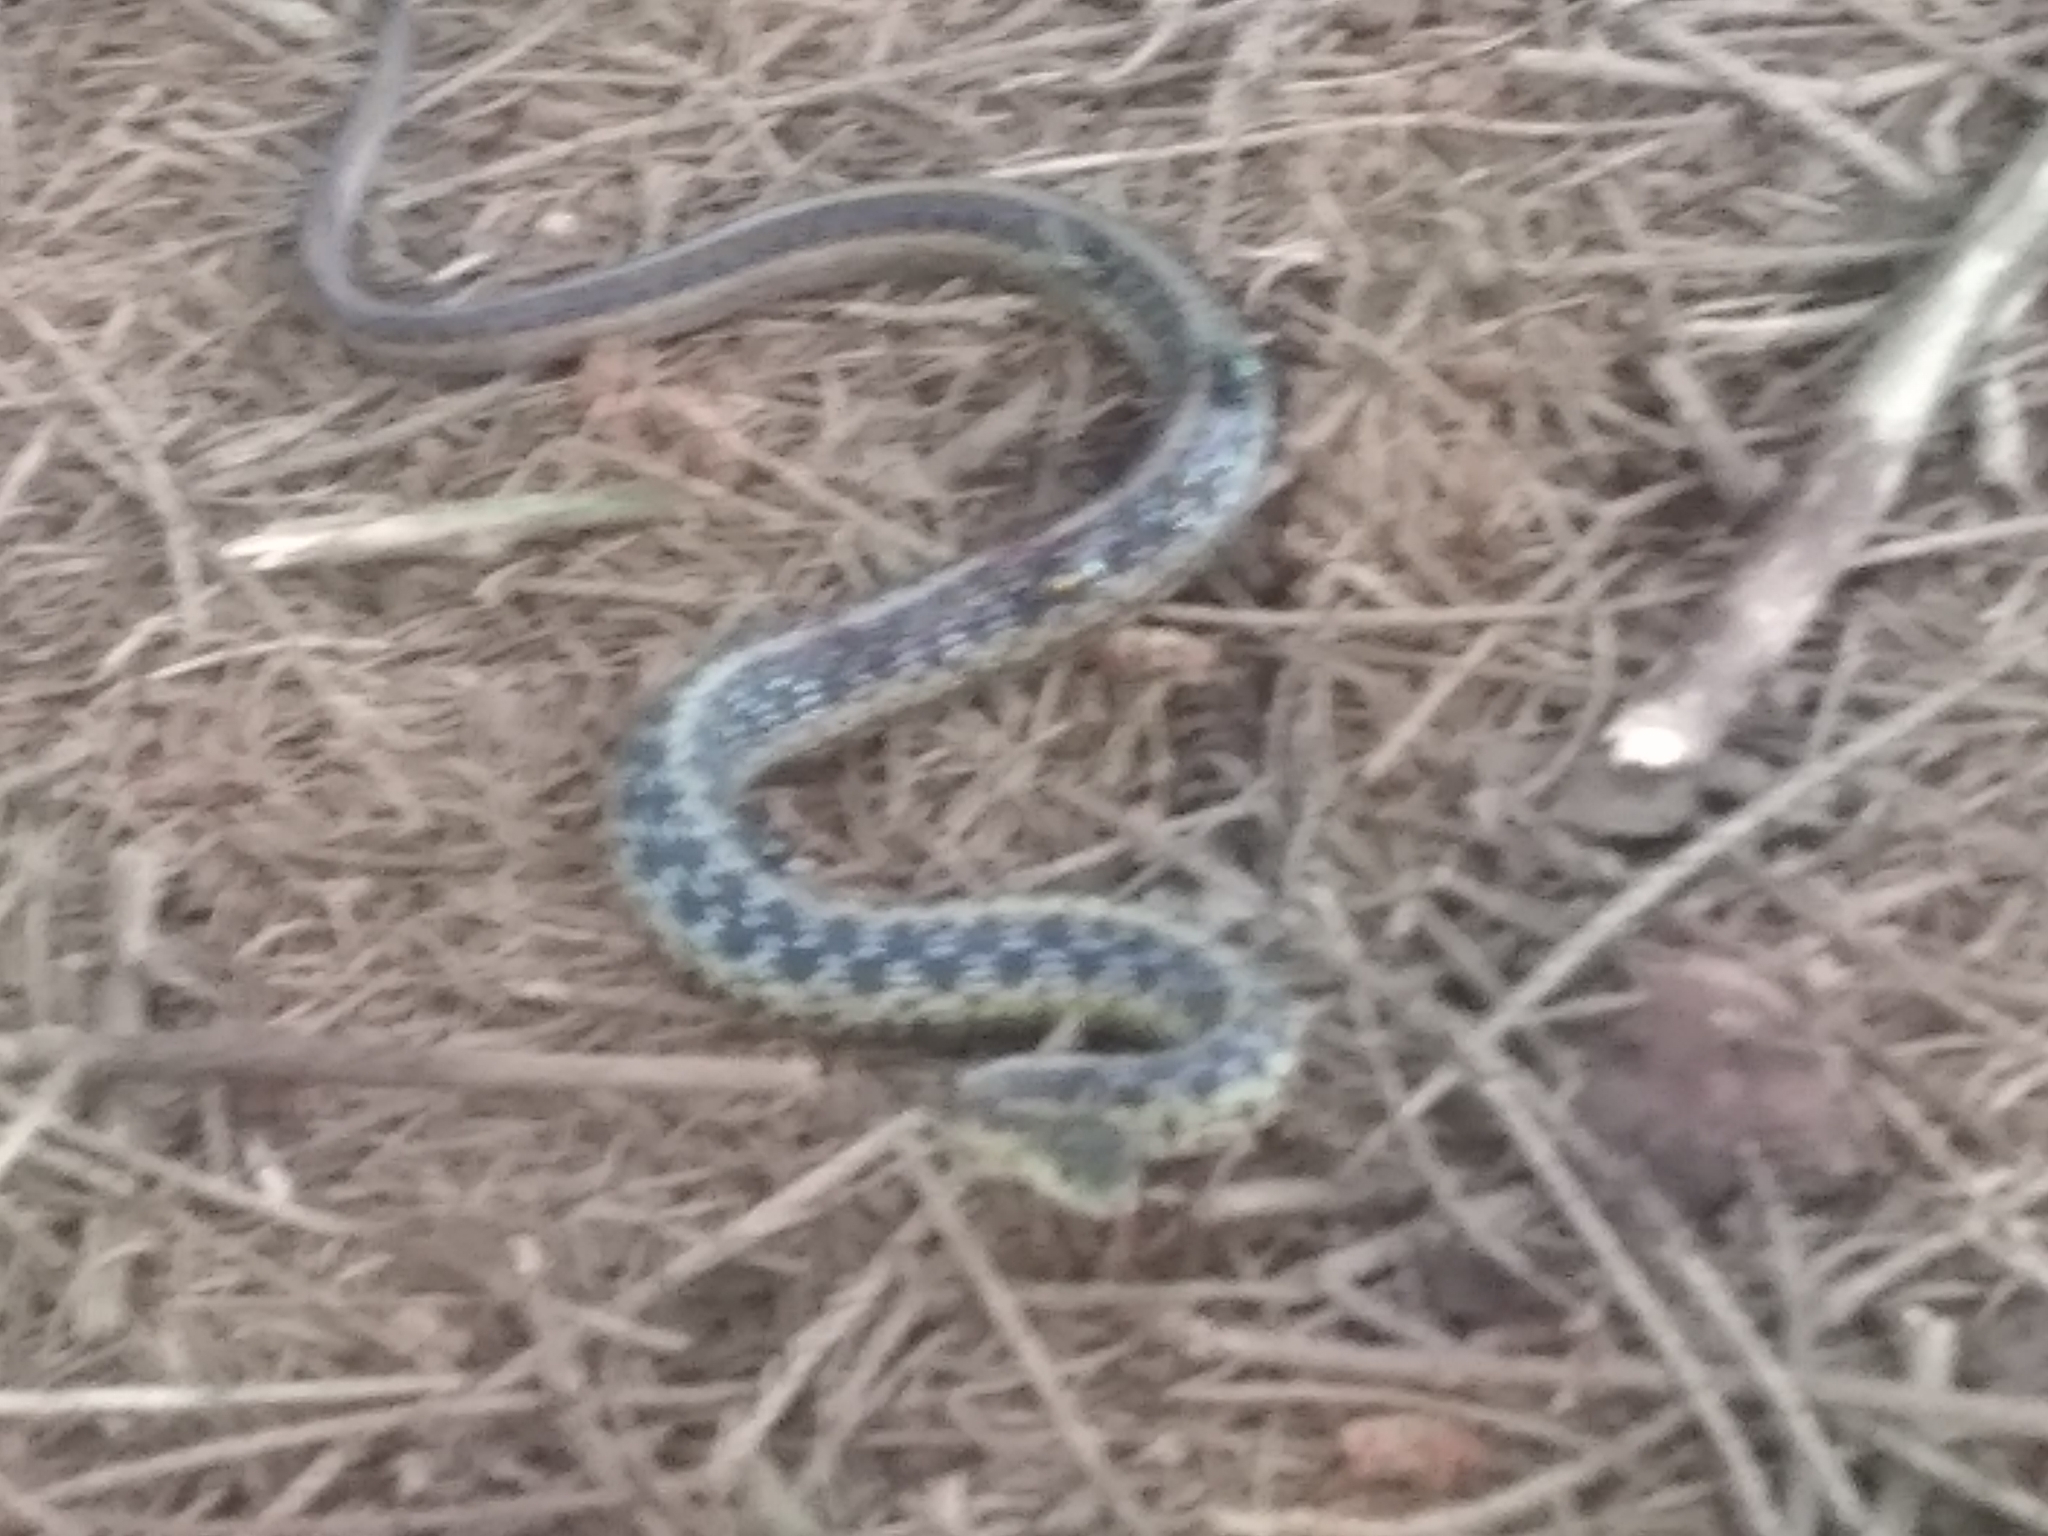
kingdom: Animalia
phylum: Chordata
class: Squamata
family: Colubridae
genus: Thamnophis
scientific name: Thamnophis sirtalis
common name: Common garter snake
